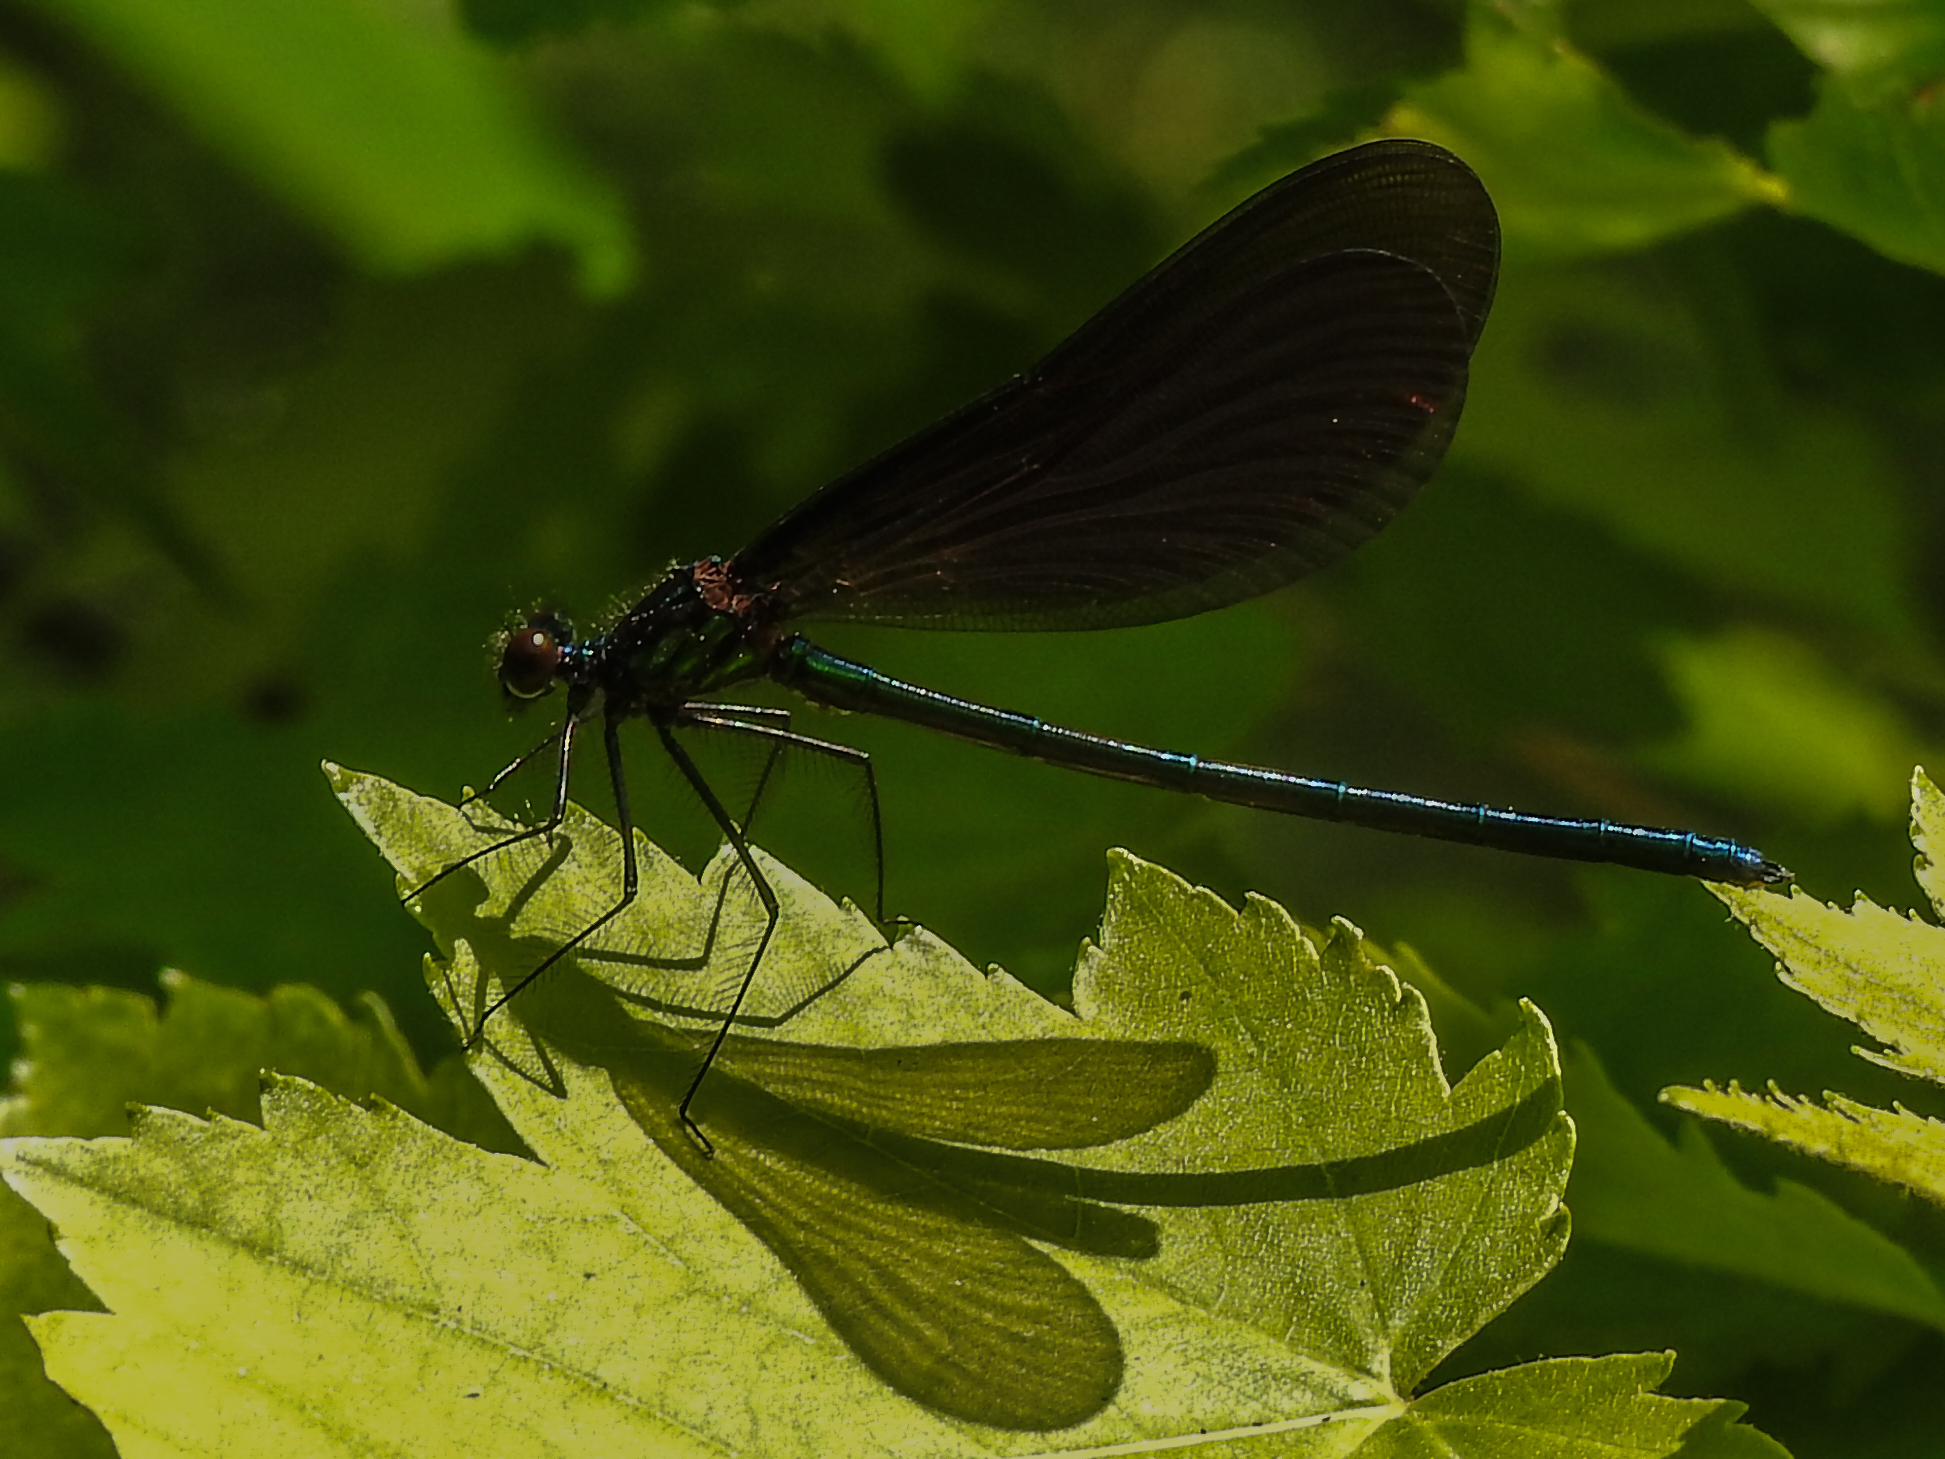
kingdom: Animalia
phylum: Arthropoda
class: Insecta
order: Odonata
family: Calopterygidae
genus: Calopteryx
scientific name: Calopteryx maculata
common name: Ebony jewelwing
